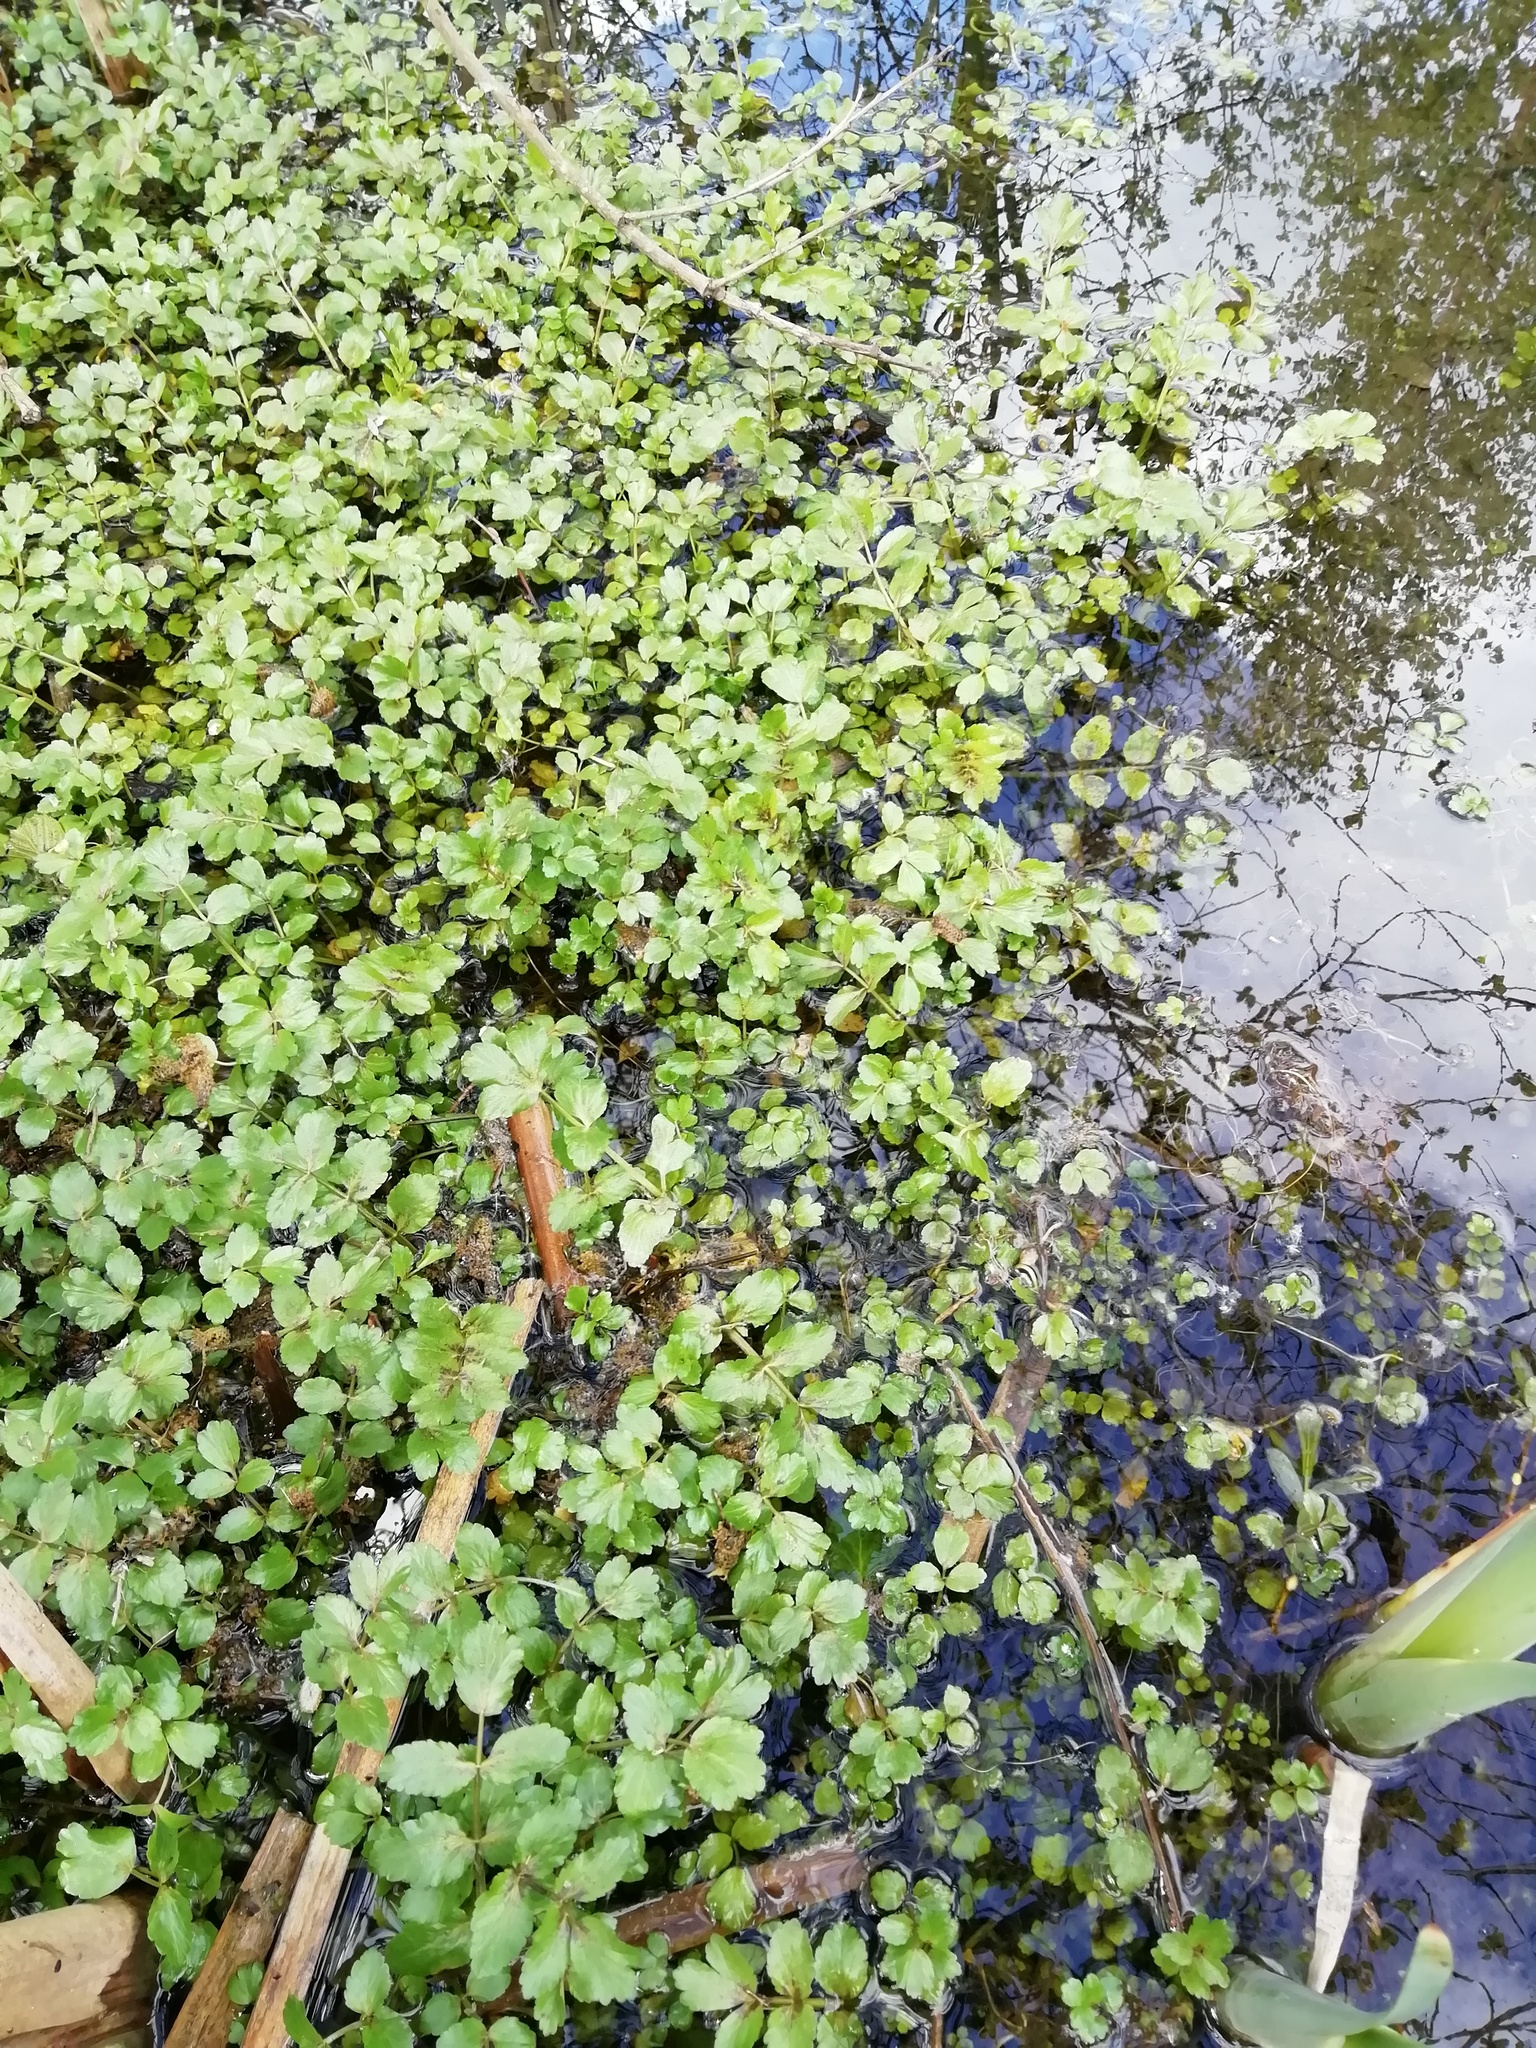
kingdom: Plantae
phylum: Tracheophyta
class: Magnoliopsida
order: Apiales
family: Apiaceae
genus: Helosciadium
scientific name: Helosciadium nodiflorum
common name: Fool's-watercress
